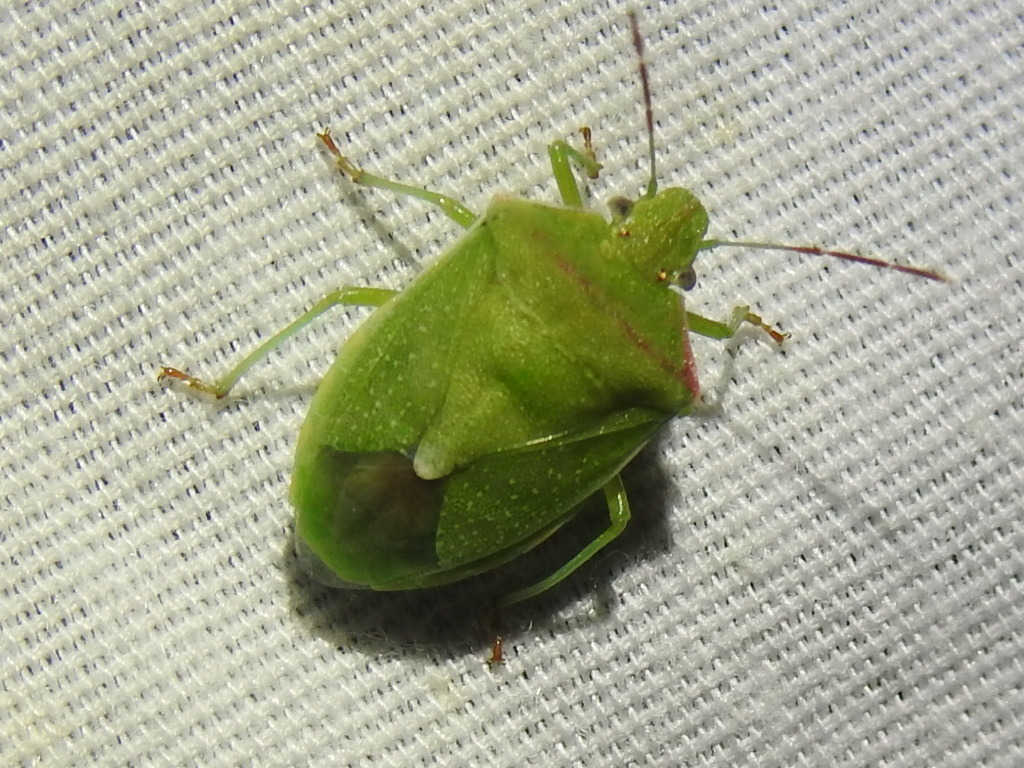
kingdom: Animalia
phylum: Arthropoda
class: Insecta
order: Hemiptera
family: Pentatomidae
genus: Thyanta
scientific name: Thyanta accerra
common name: Stink bug
